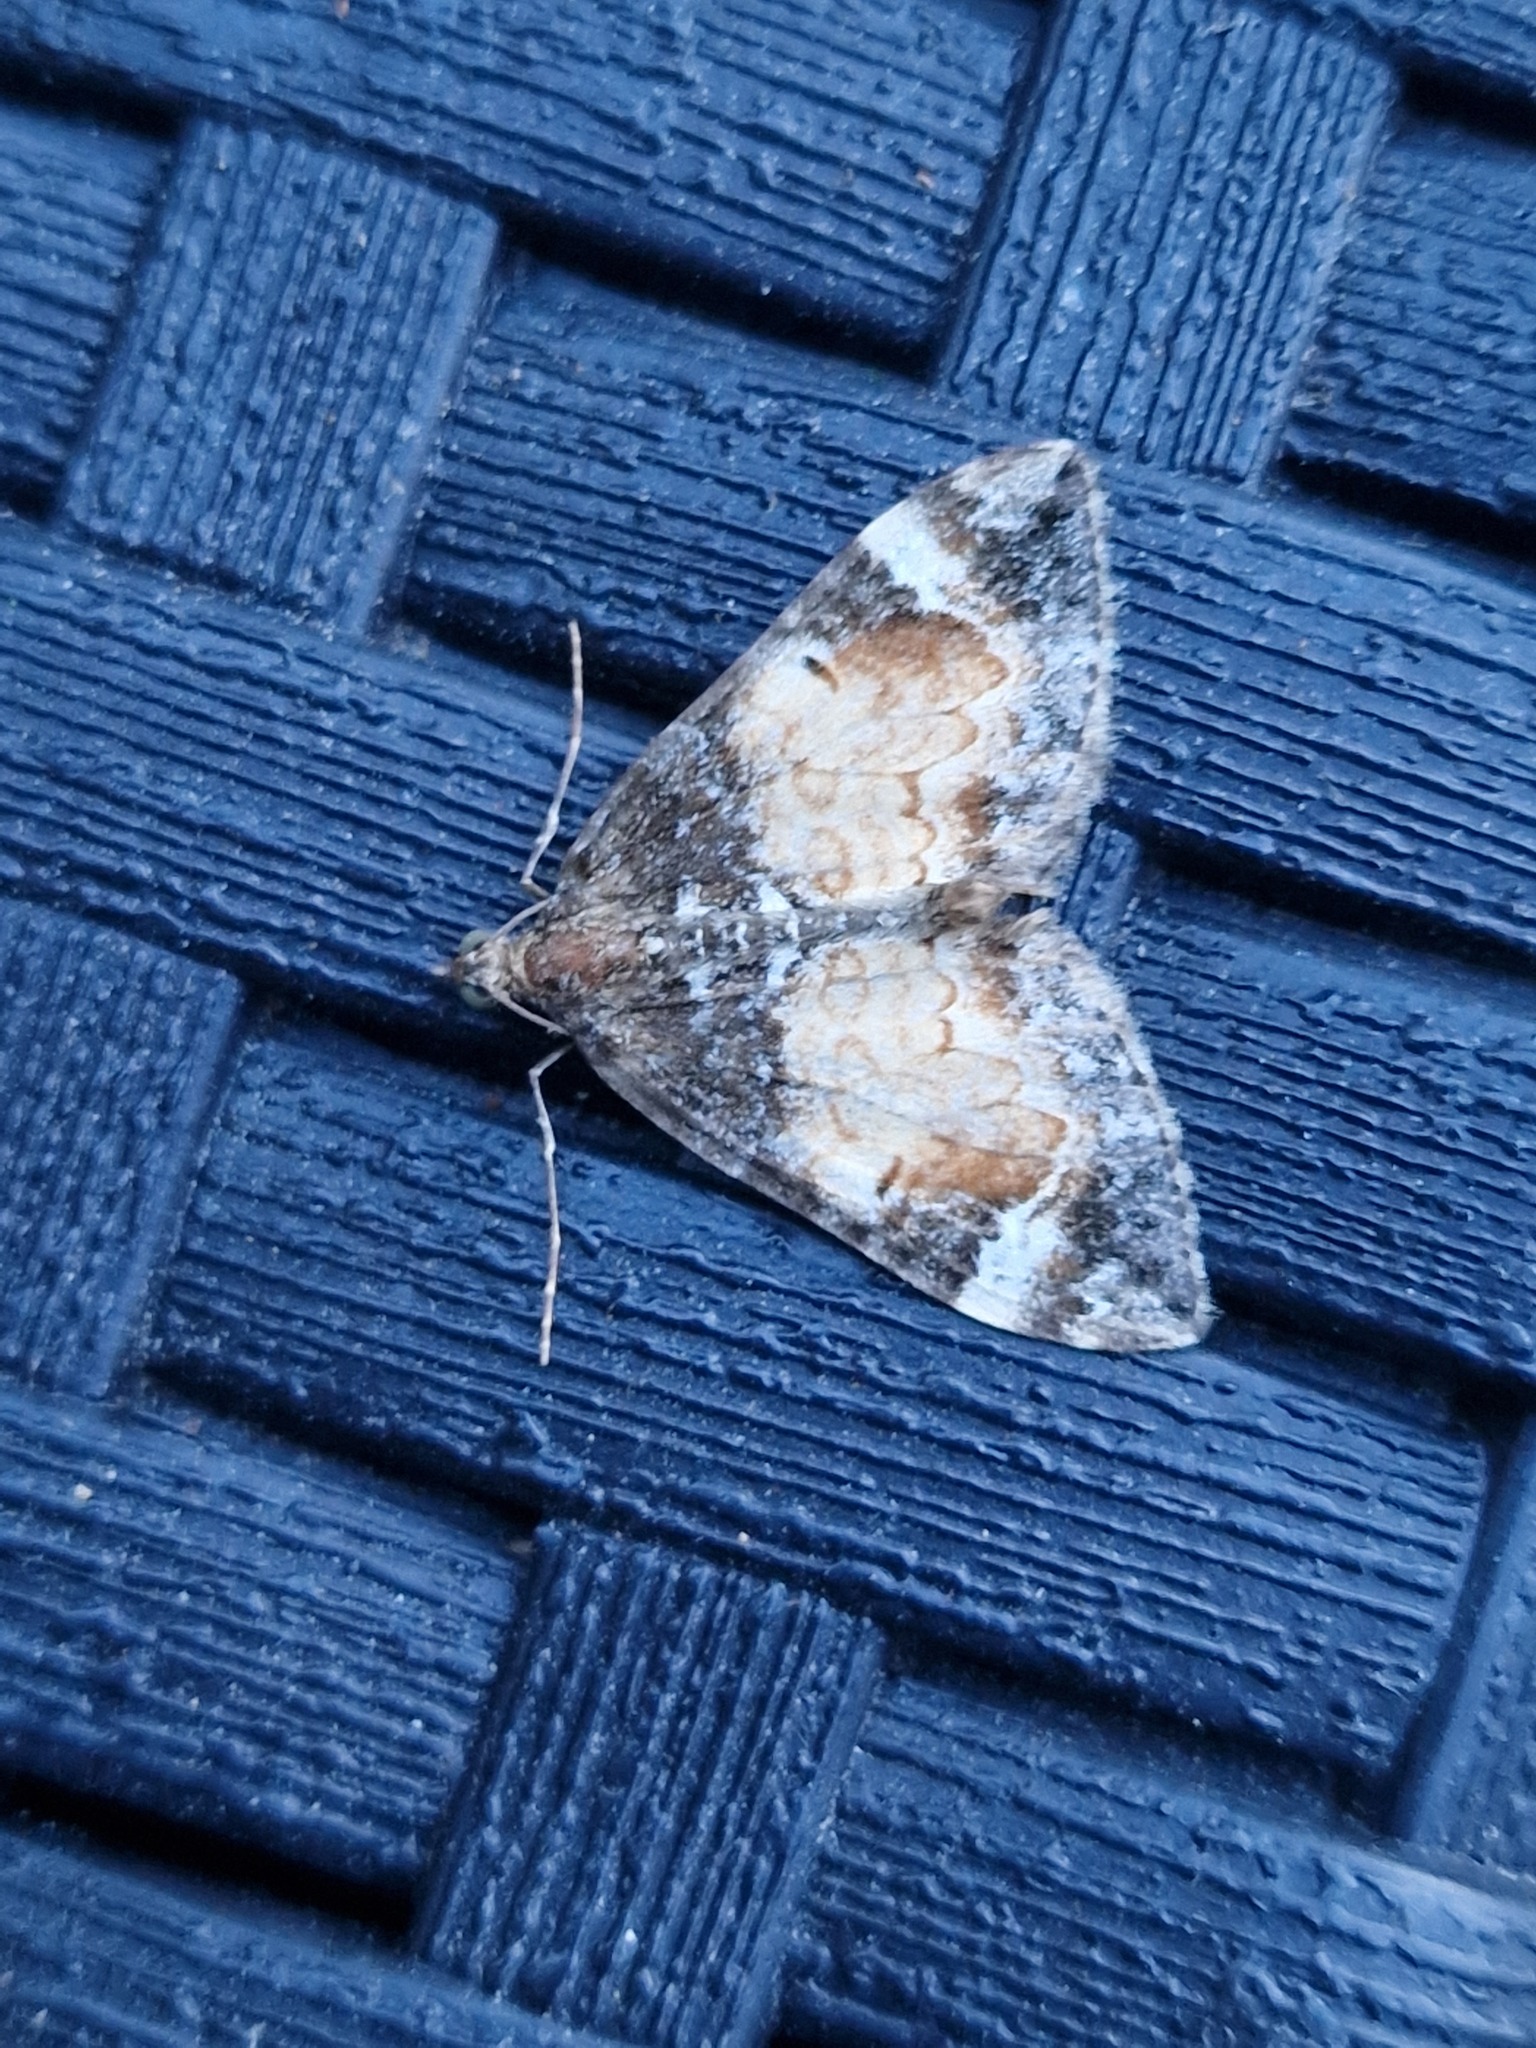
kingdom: Animalia
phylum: Arthropoda
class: Insecta
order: Lepidoptera
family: Geometridae
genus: Dysstroma
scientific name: Dysstroma truncata
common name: Common marbled carpet
